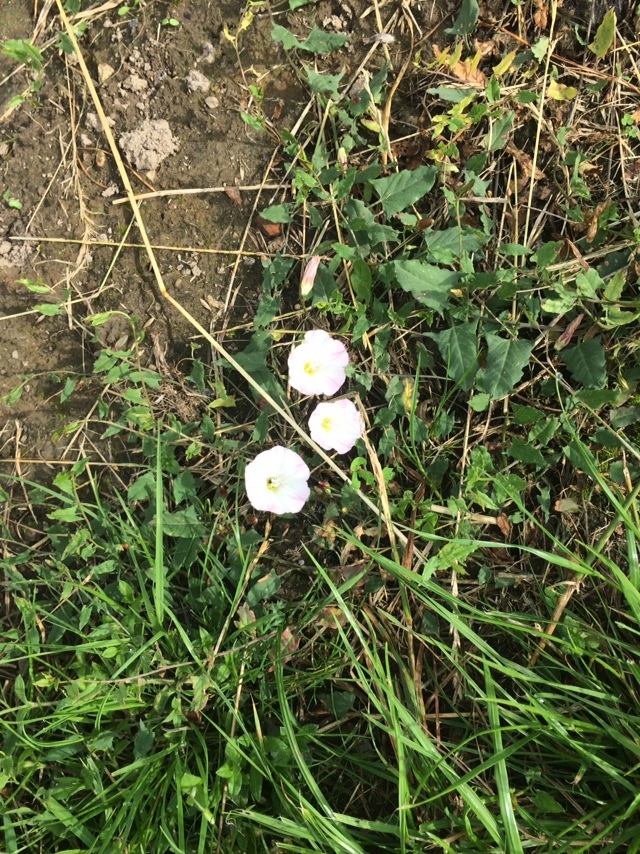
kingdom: Plantae
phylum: Tracheophyta
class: Magnoliopsida
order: Solanales
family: Convolvulaceae
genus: Convolvulus
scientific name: Convolvulus arvensis
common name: Field bindweed
